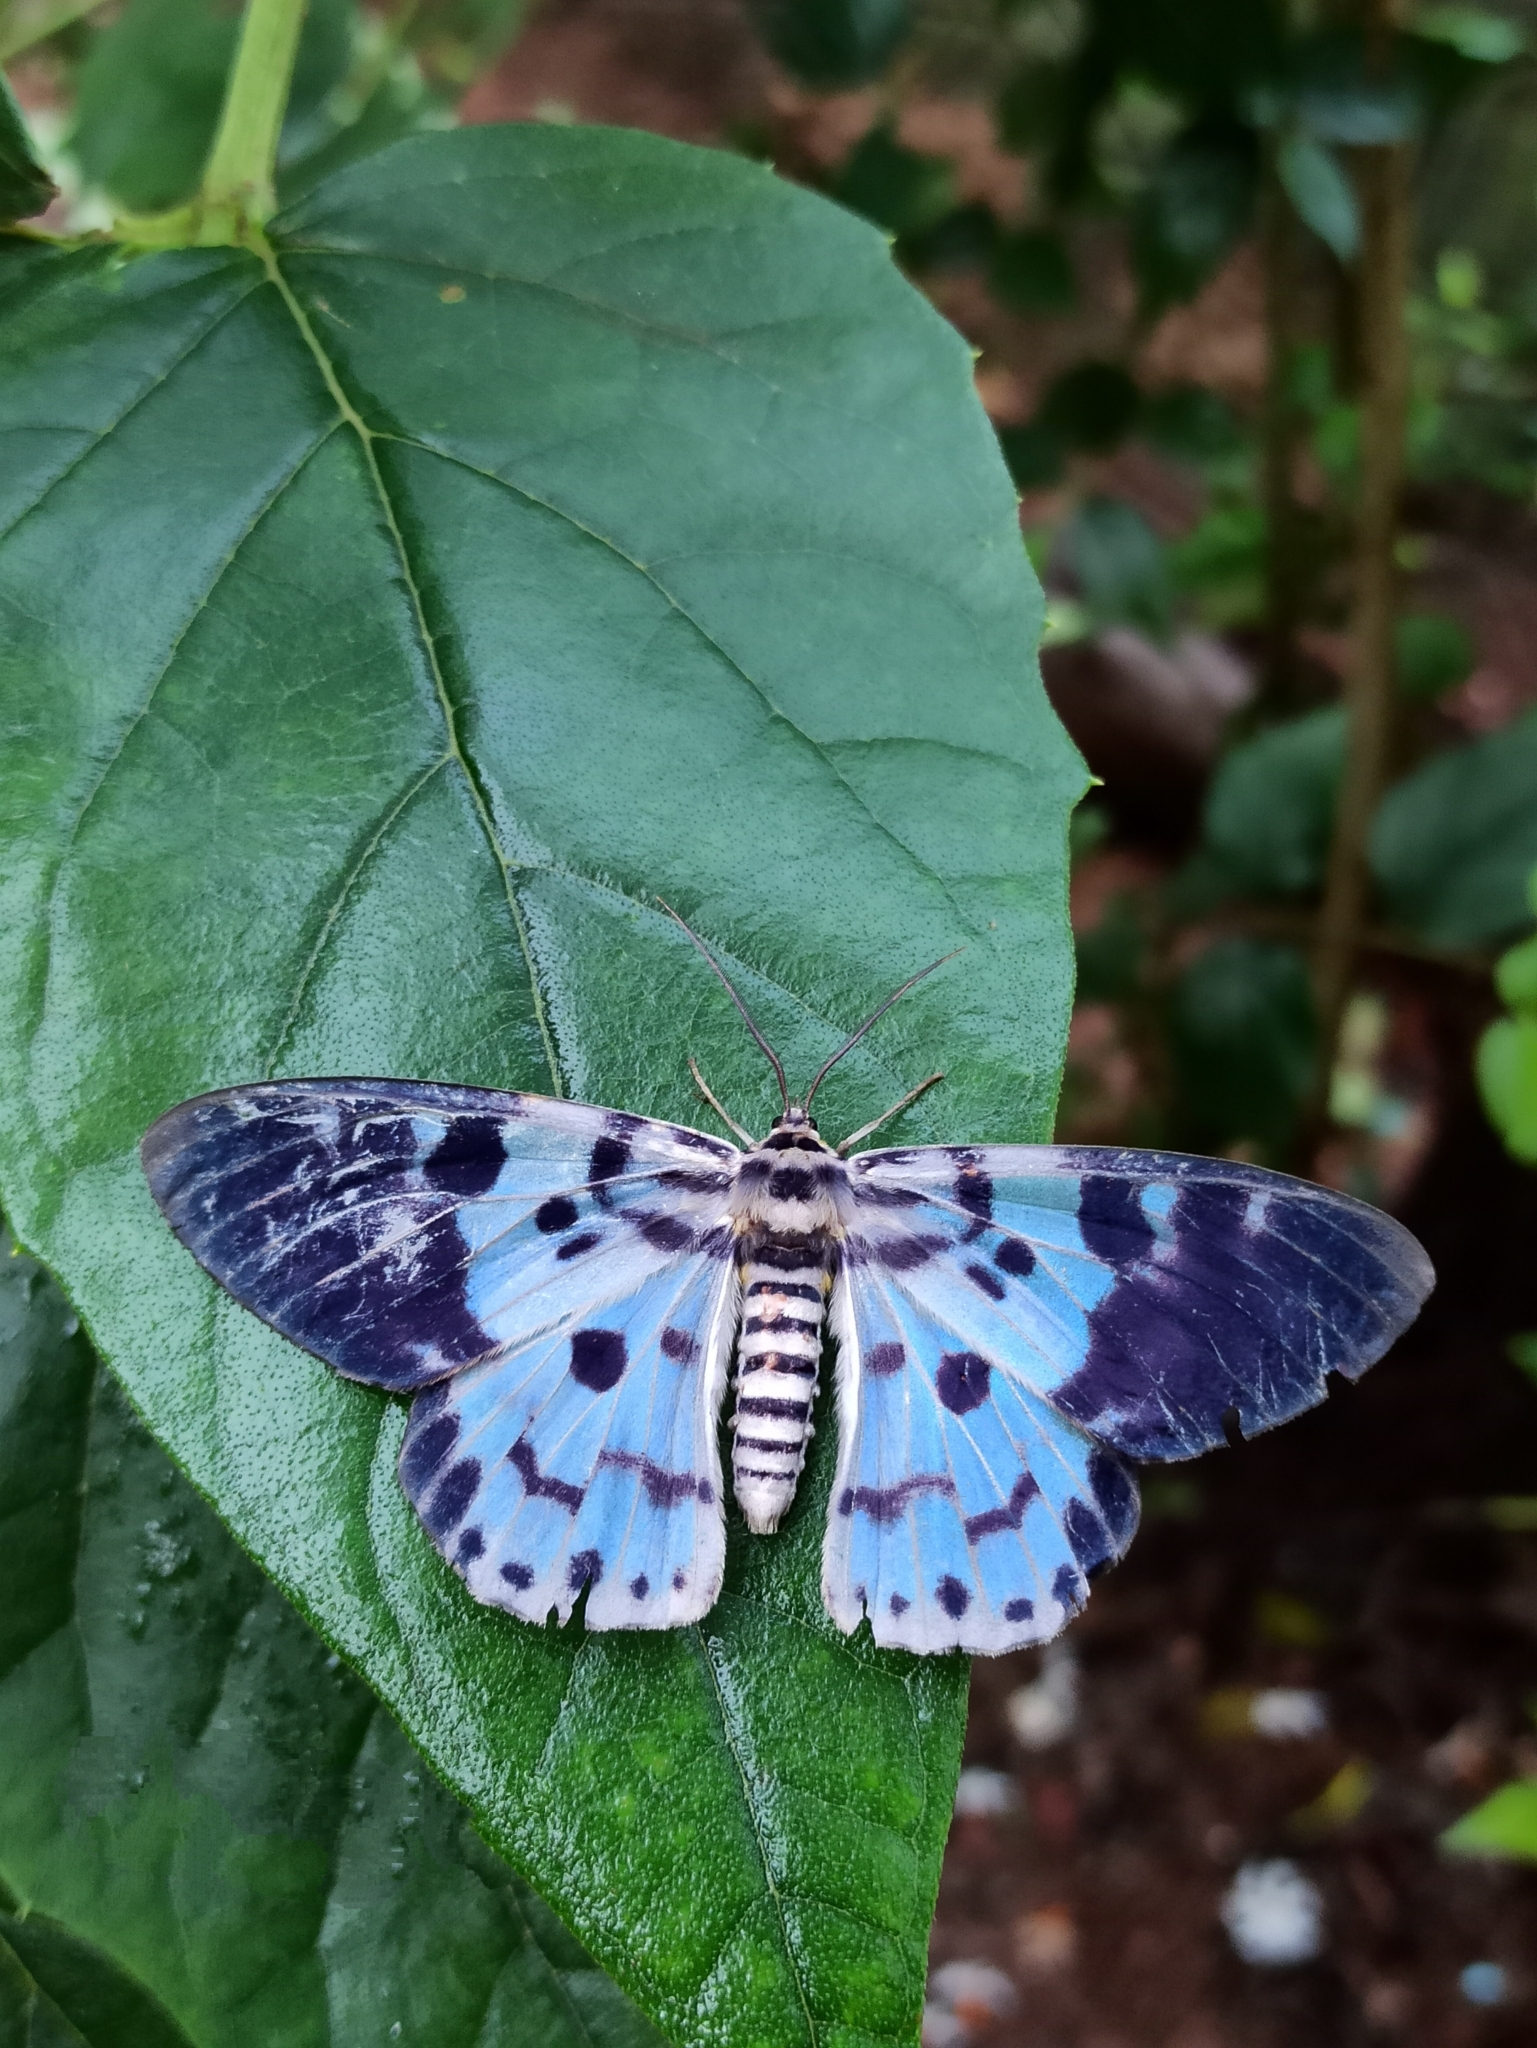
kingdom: Animalia
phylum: Arthropoda
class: Insecta
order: Lepidoptera
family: Geometridae
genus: Dysphania
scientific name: Dysphania percota
